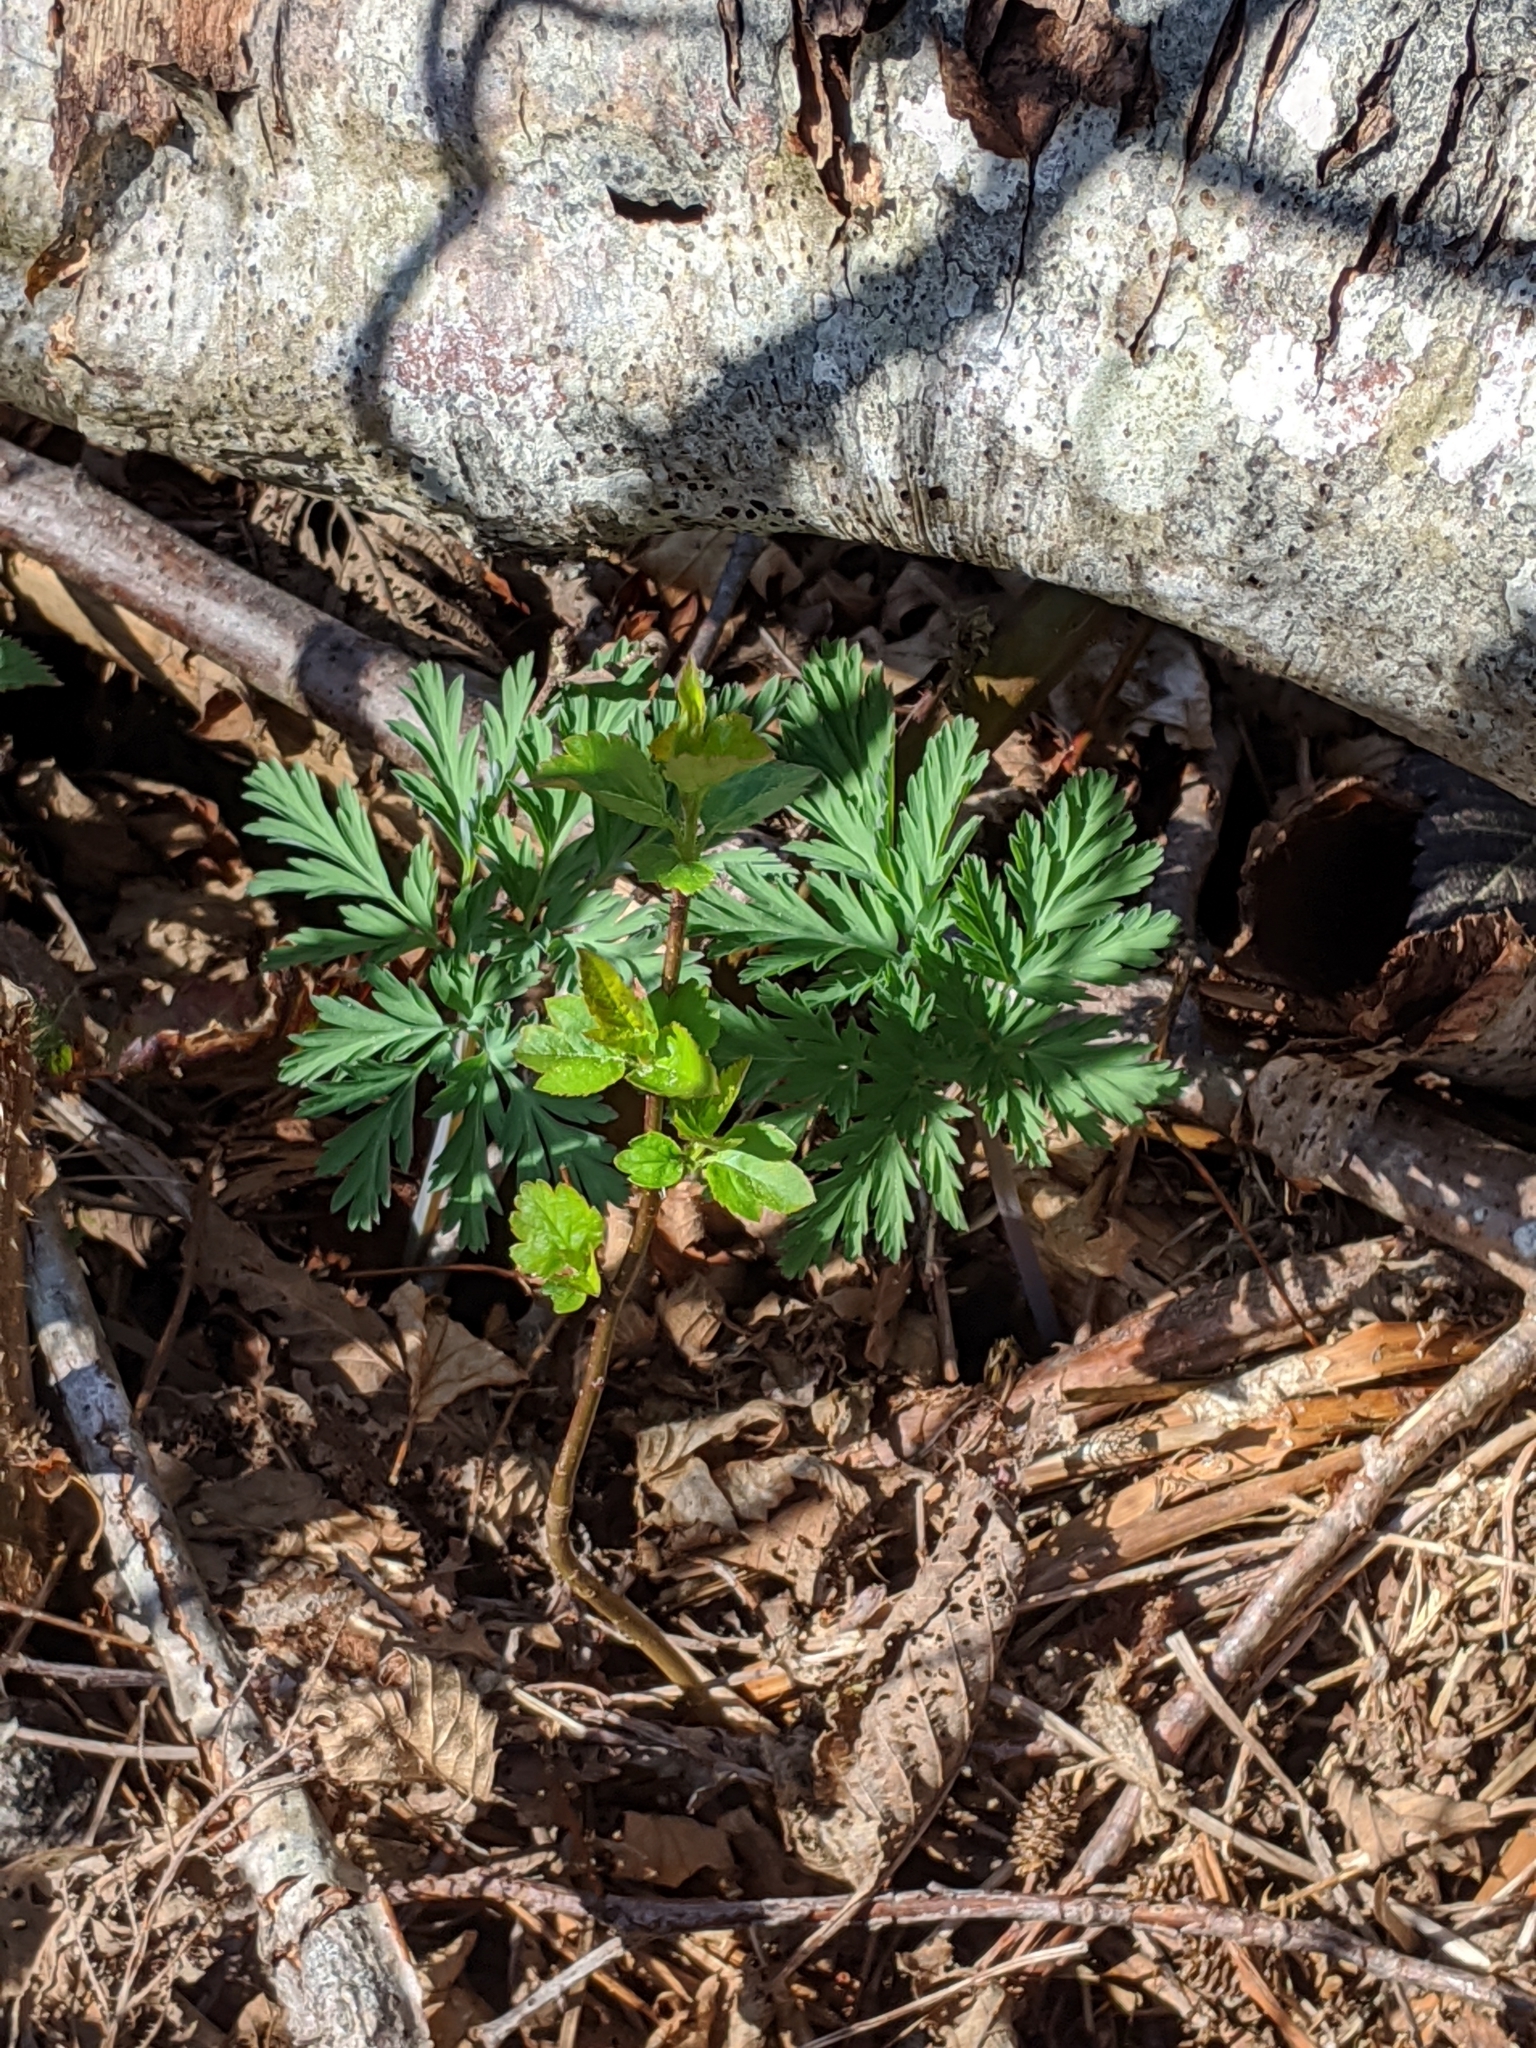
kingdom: Plantae
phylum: Tracheophyta
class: Magnoliopsida
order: Ranunculales
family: Papaveraceae
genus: Dicentra
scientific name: Dicentra formosa
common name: Bleeding-heart
